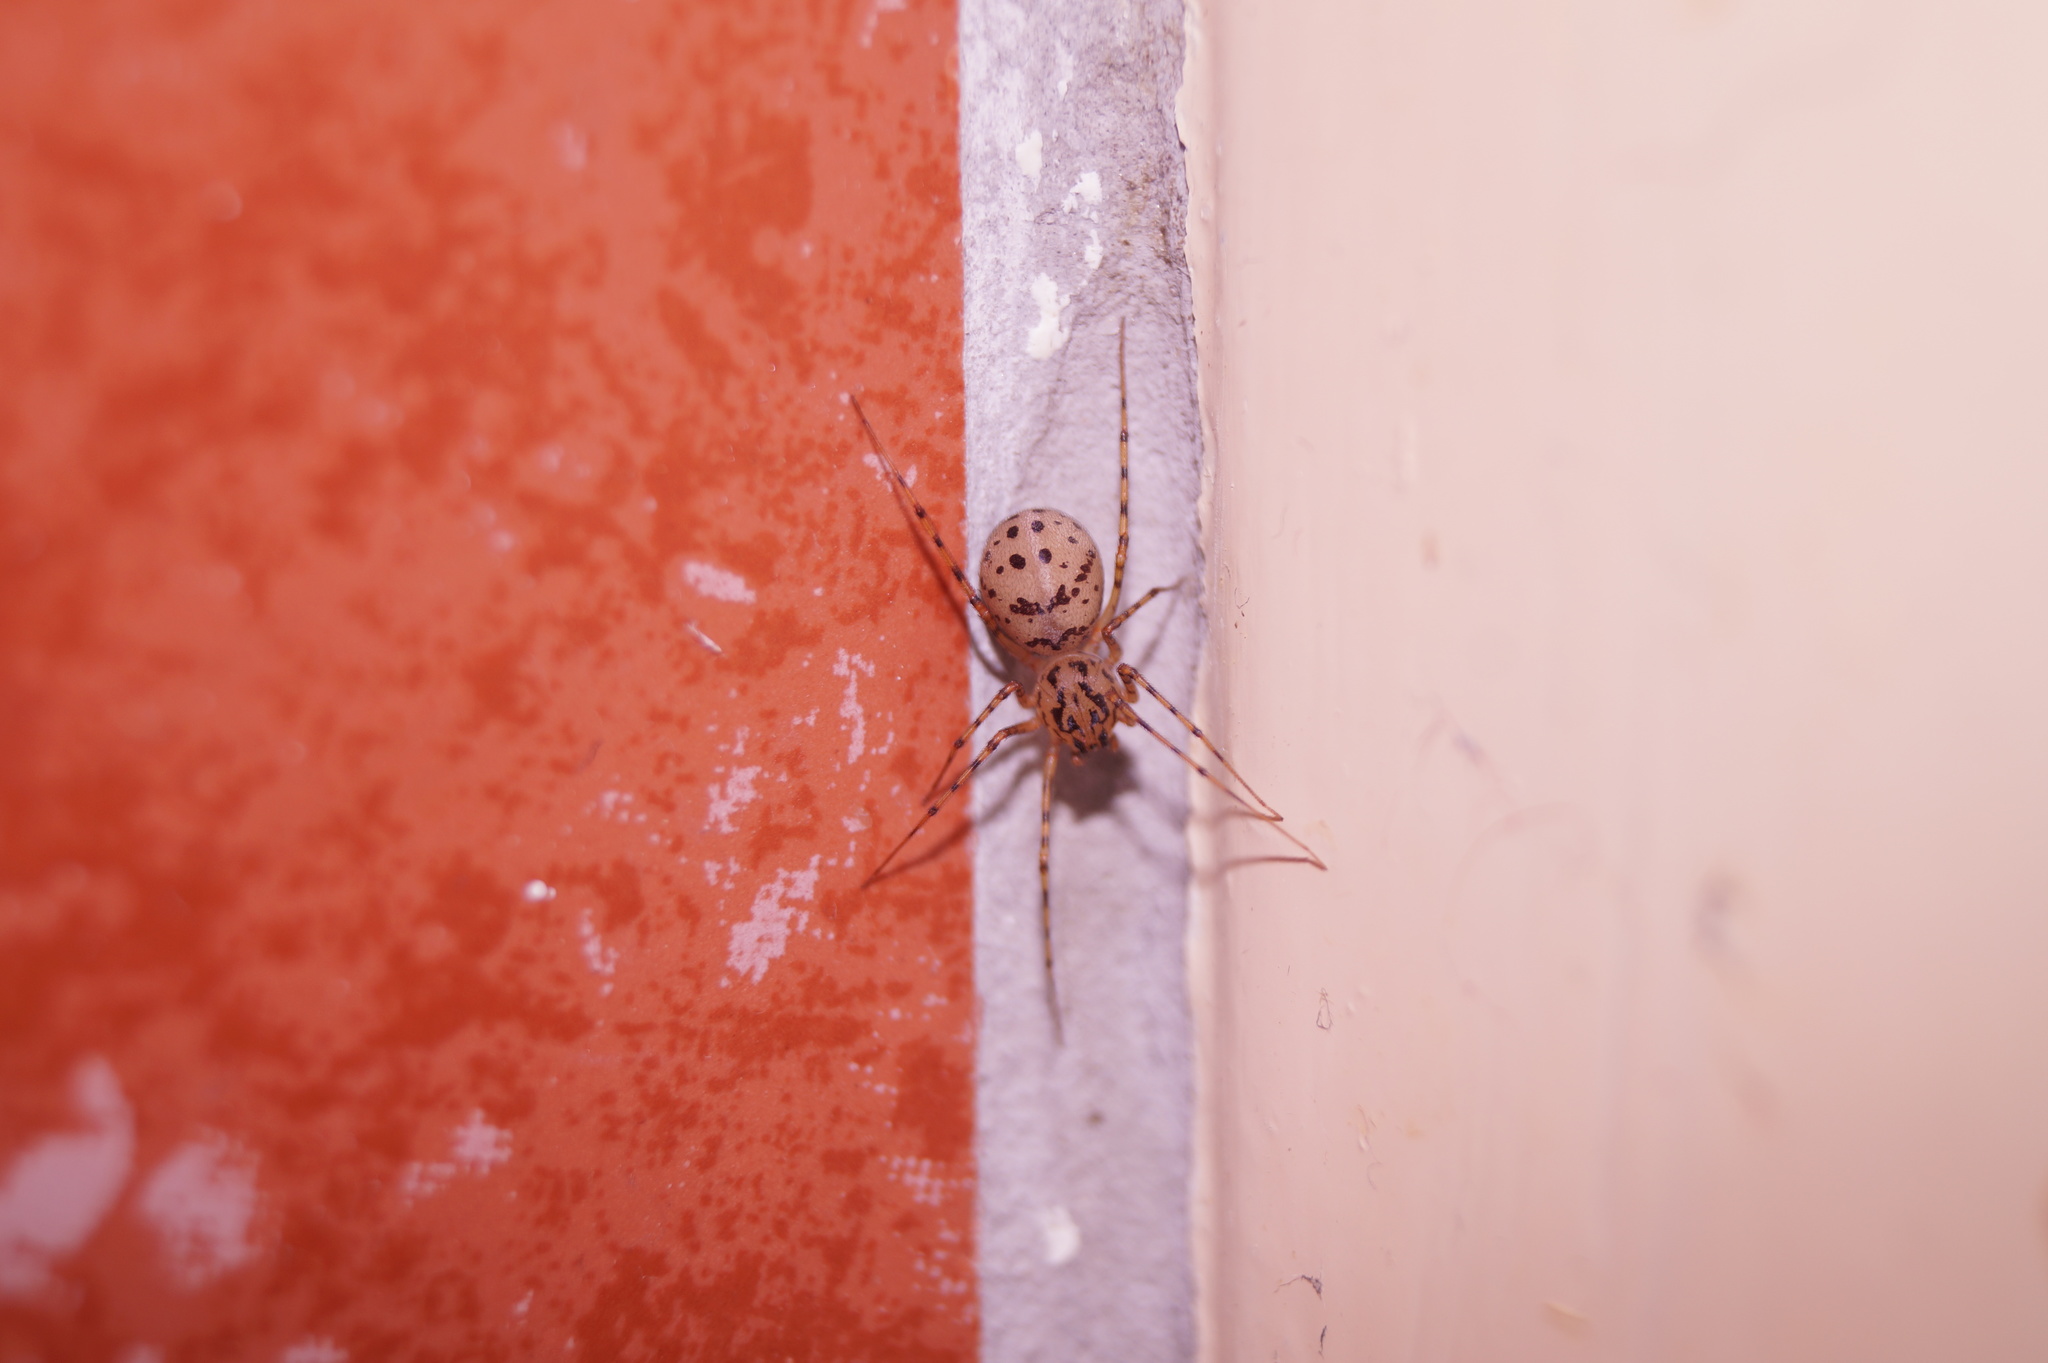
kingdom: Animalia
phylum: Arthropoda
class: Arachnida
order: Araneae
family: Scytodidae
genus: Scytodes
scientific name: Scytodes thoracica
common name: Spitting spider
